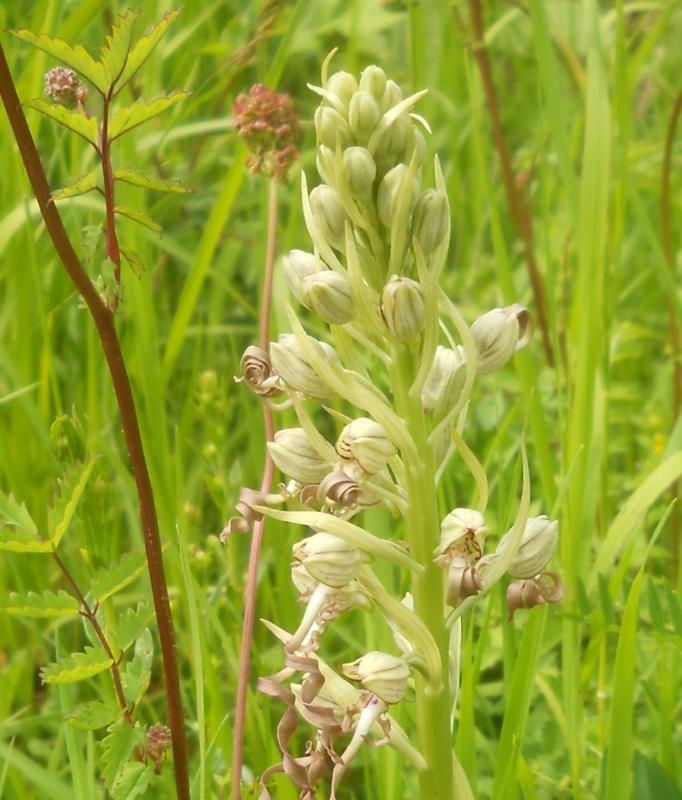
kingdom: Plantae
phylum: Tracheophyta
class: Liliopsida
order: Asparagales
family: Orchidaceae
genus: Himantoglossum
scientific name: Himantoglossum hircinum
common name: Lizard orchid
